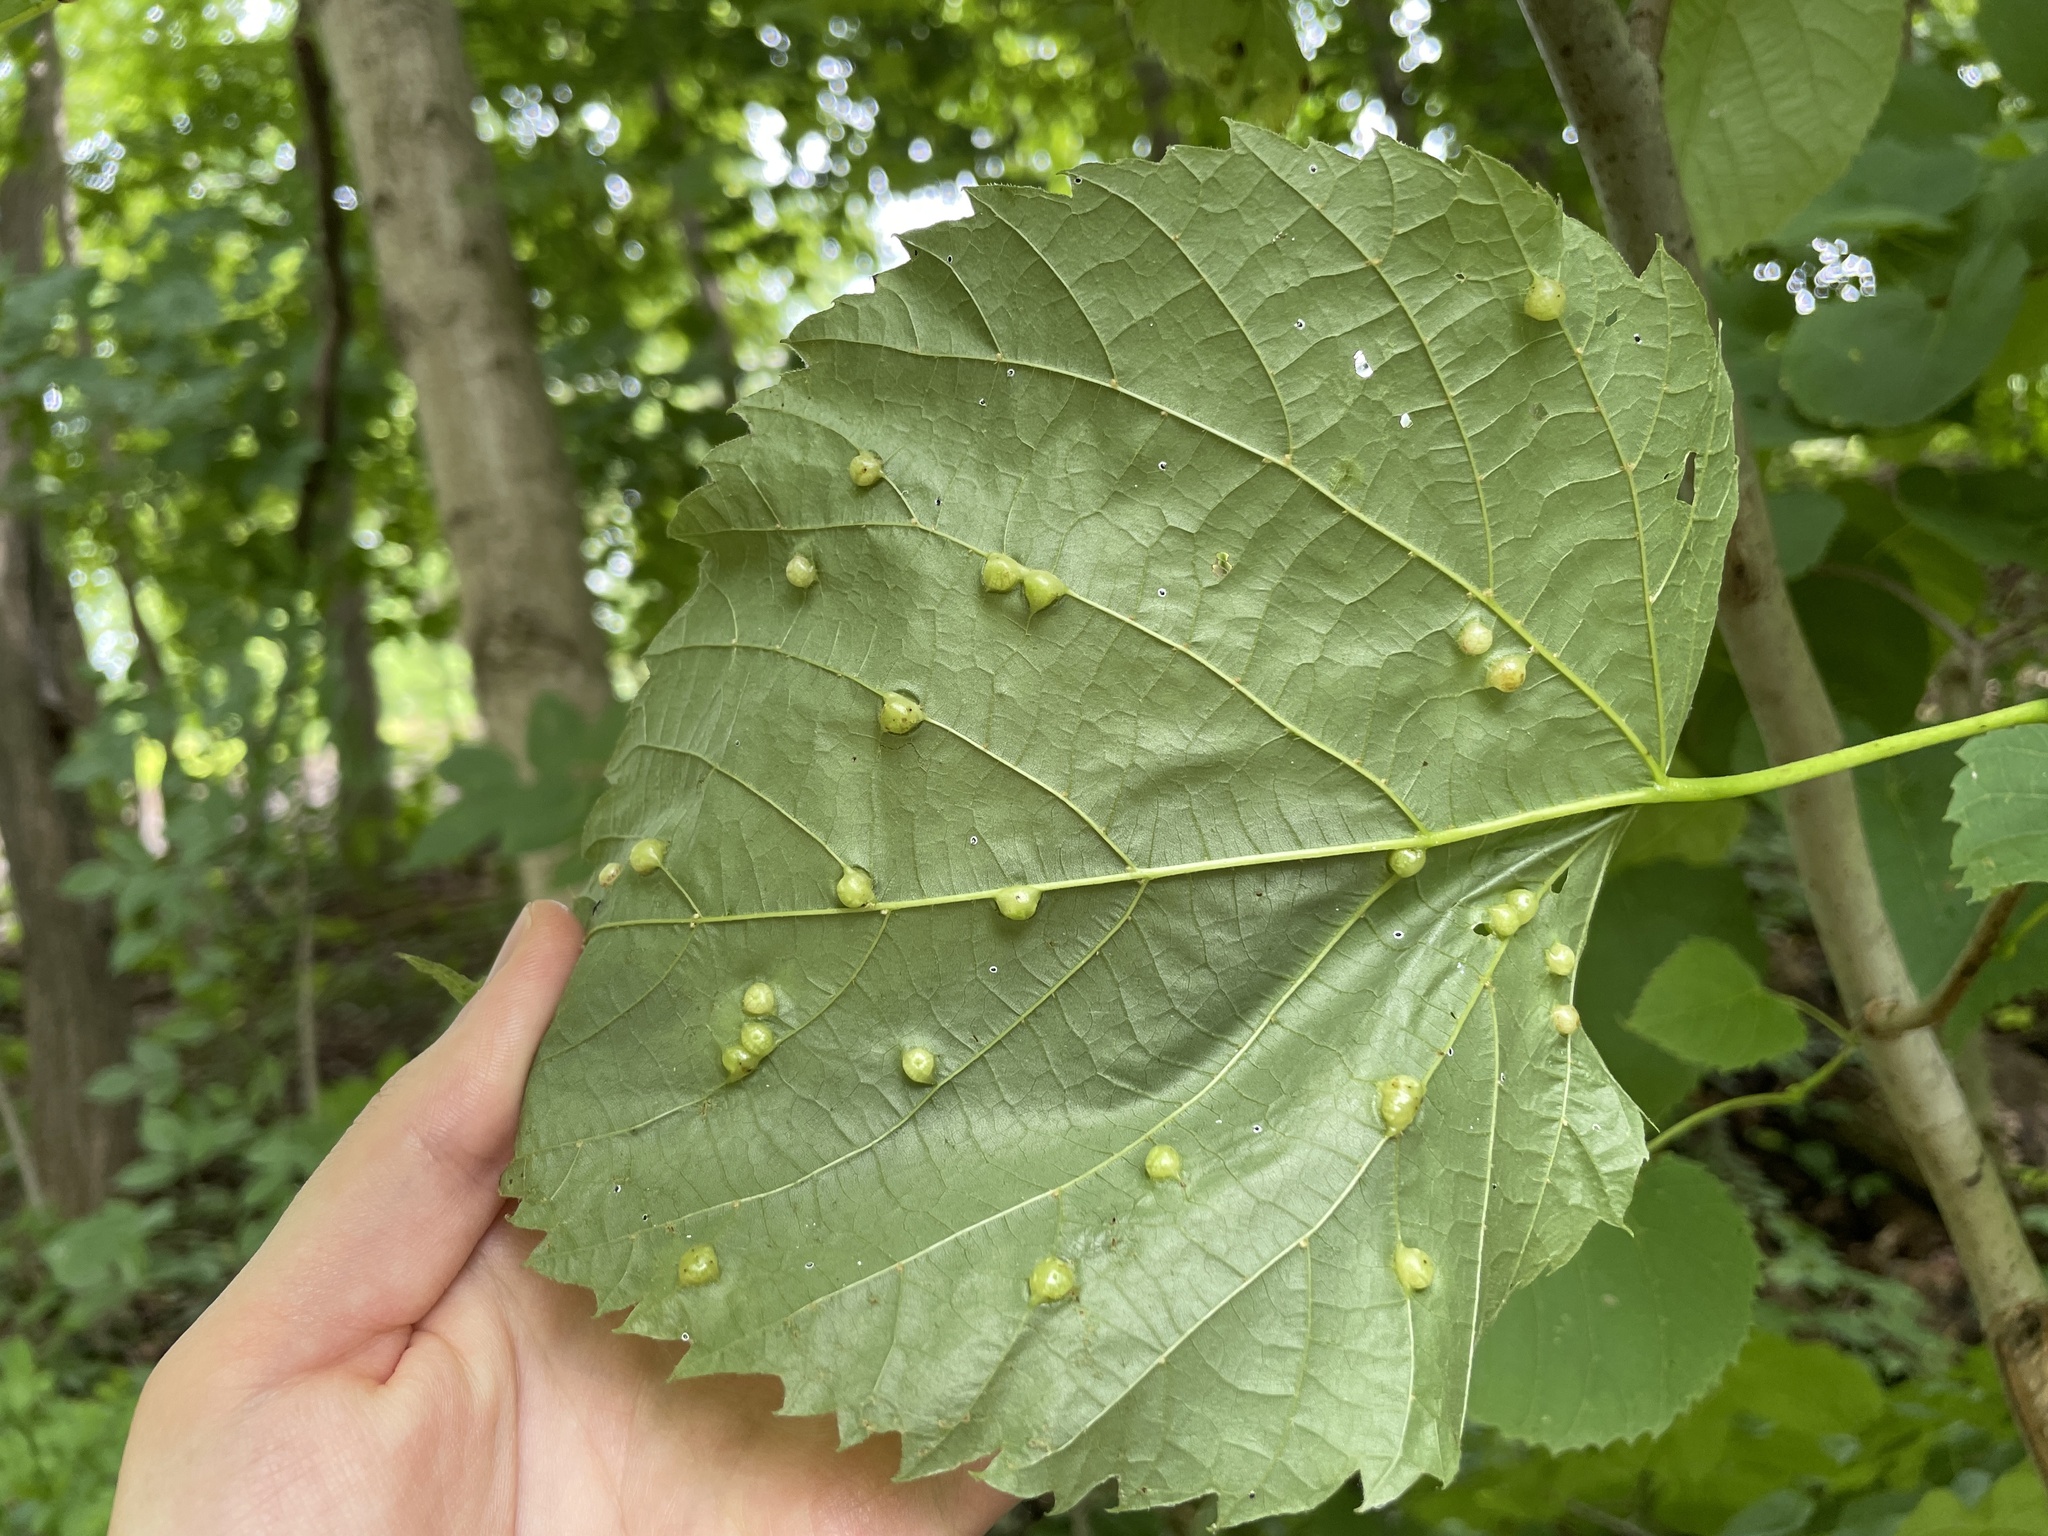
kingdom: Animalia
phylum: Arthropoda
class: Insecta
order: Diptera
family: Cecidomyiidae
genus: Contarinia
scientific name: Contarinia verrucicola
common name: Linden wart gall midge
